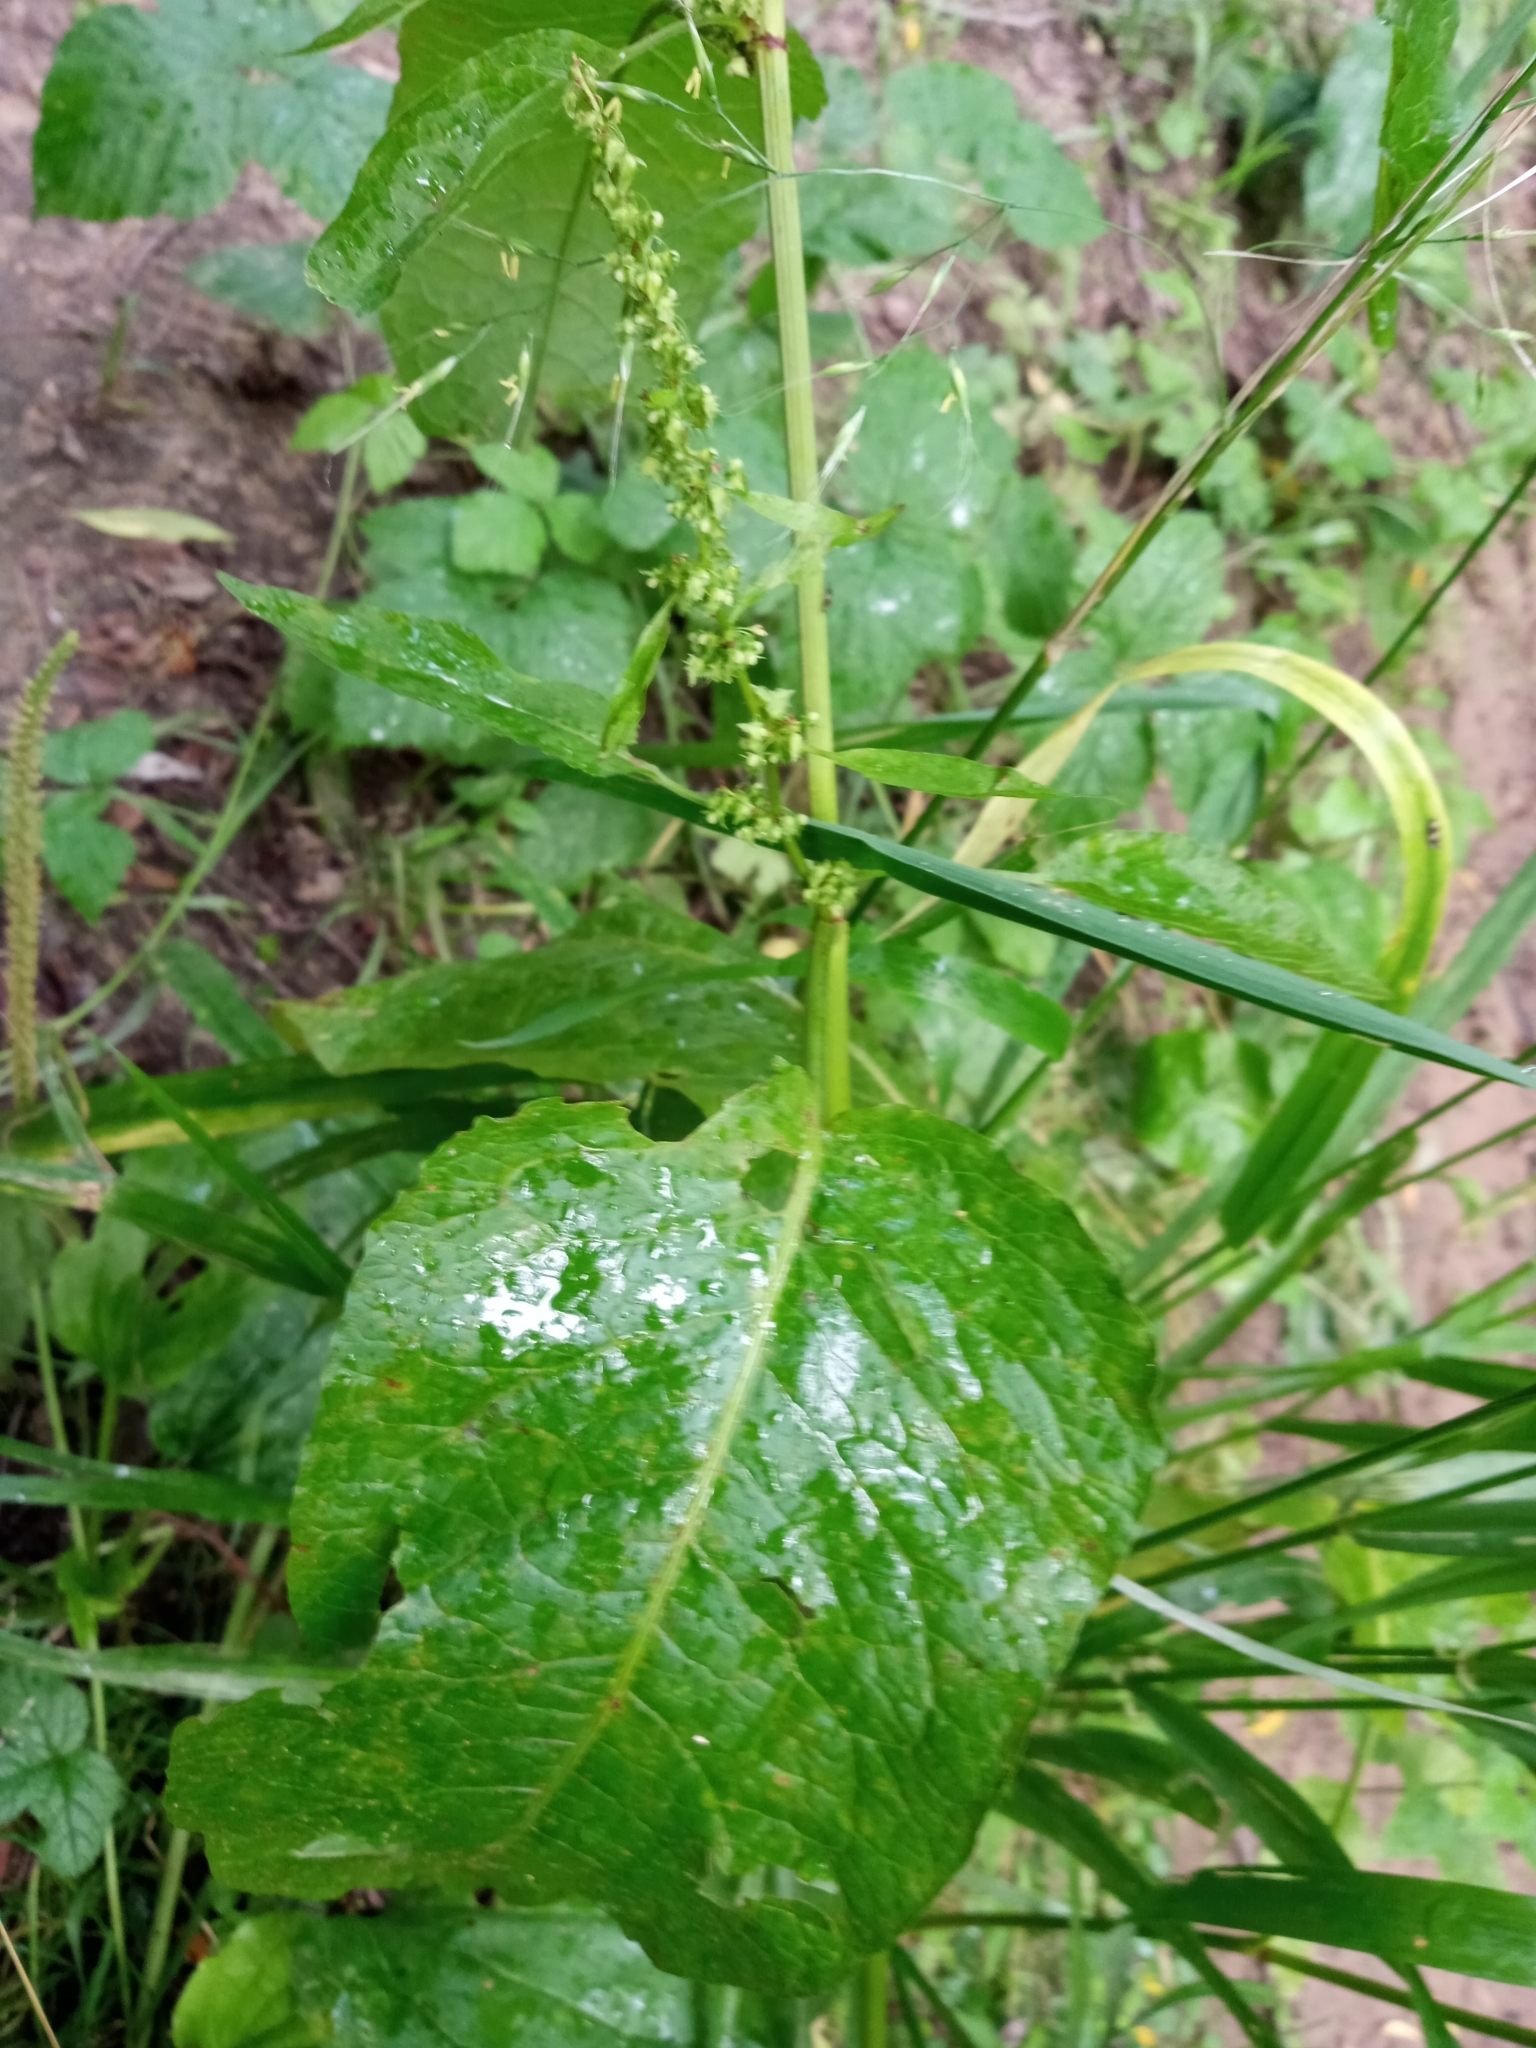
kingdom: Plantae
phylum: Tracheophyta
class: Magnoliopsida
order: Caryophyllales
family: Polygonaceae
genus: Rumex
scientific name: Rumex obtusifolius
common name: Bitter dock
